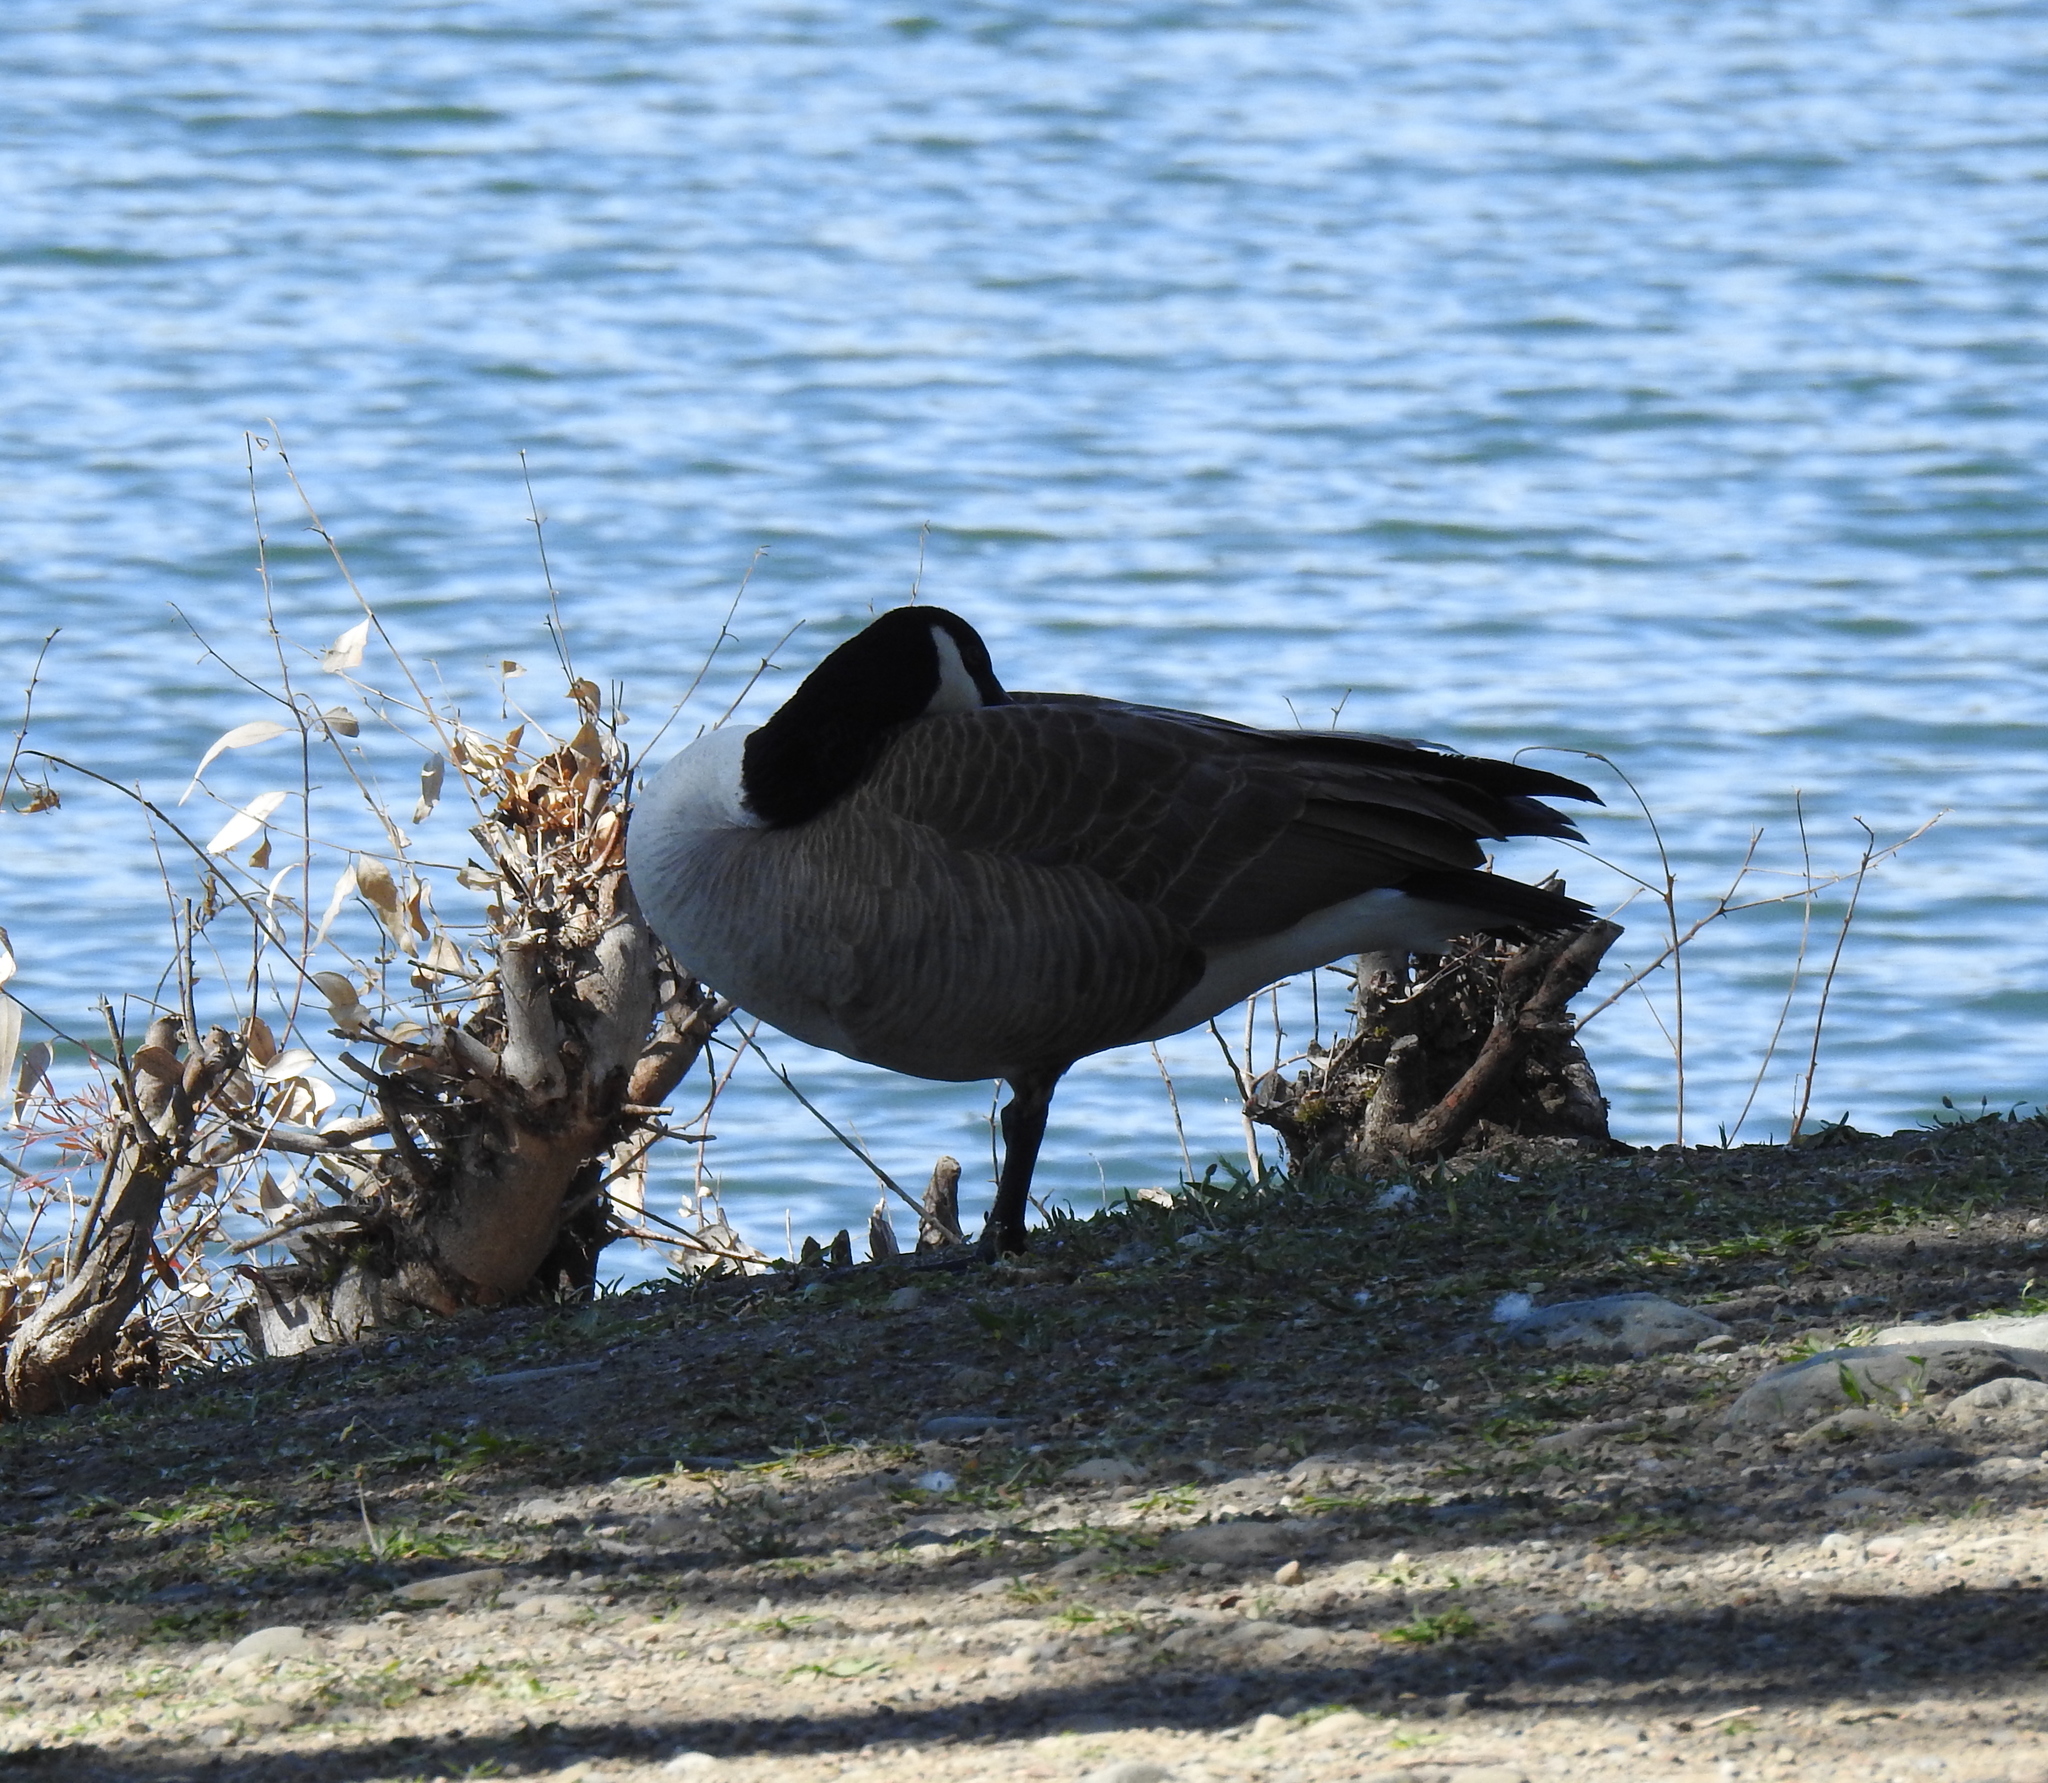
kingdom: Animalia
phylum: Chordata
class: Aves
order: Anseriformes
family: Anatidae
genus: Branta
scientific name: Branta canadensis
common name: Canada goose
